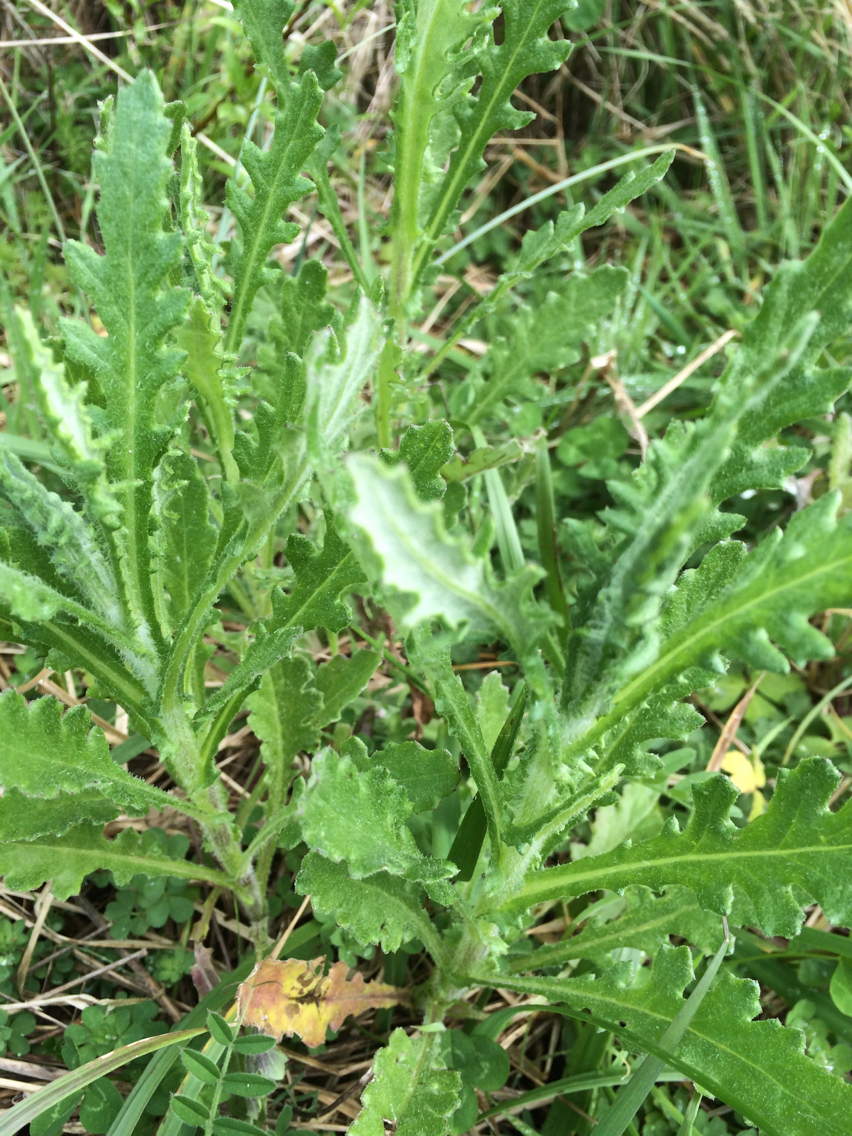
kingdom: Plantae
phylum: Tracheophyta
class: Magnoliopsida
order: Asterales
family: Asteraceae
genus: Senecio
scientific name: Senecio glomeratus
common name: Cutleaf burnweed
